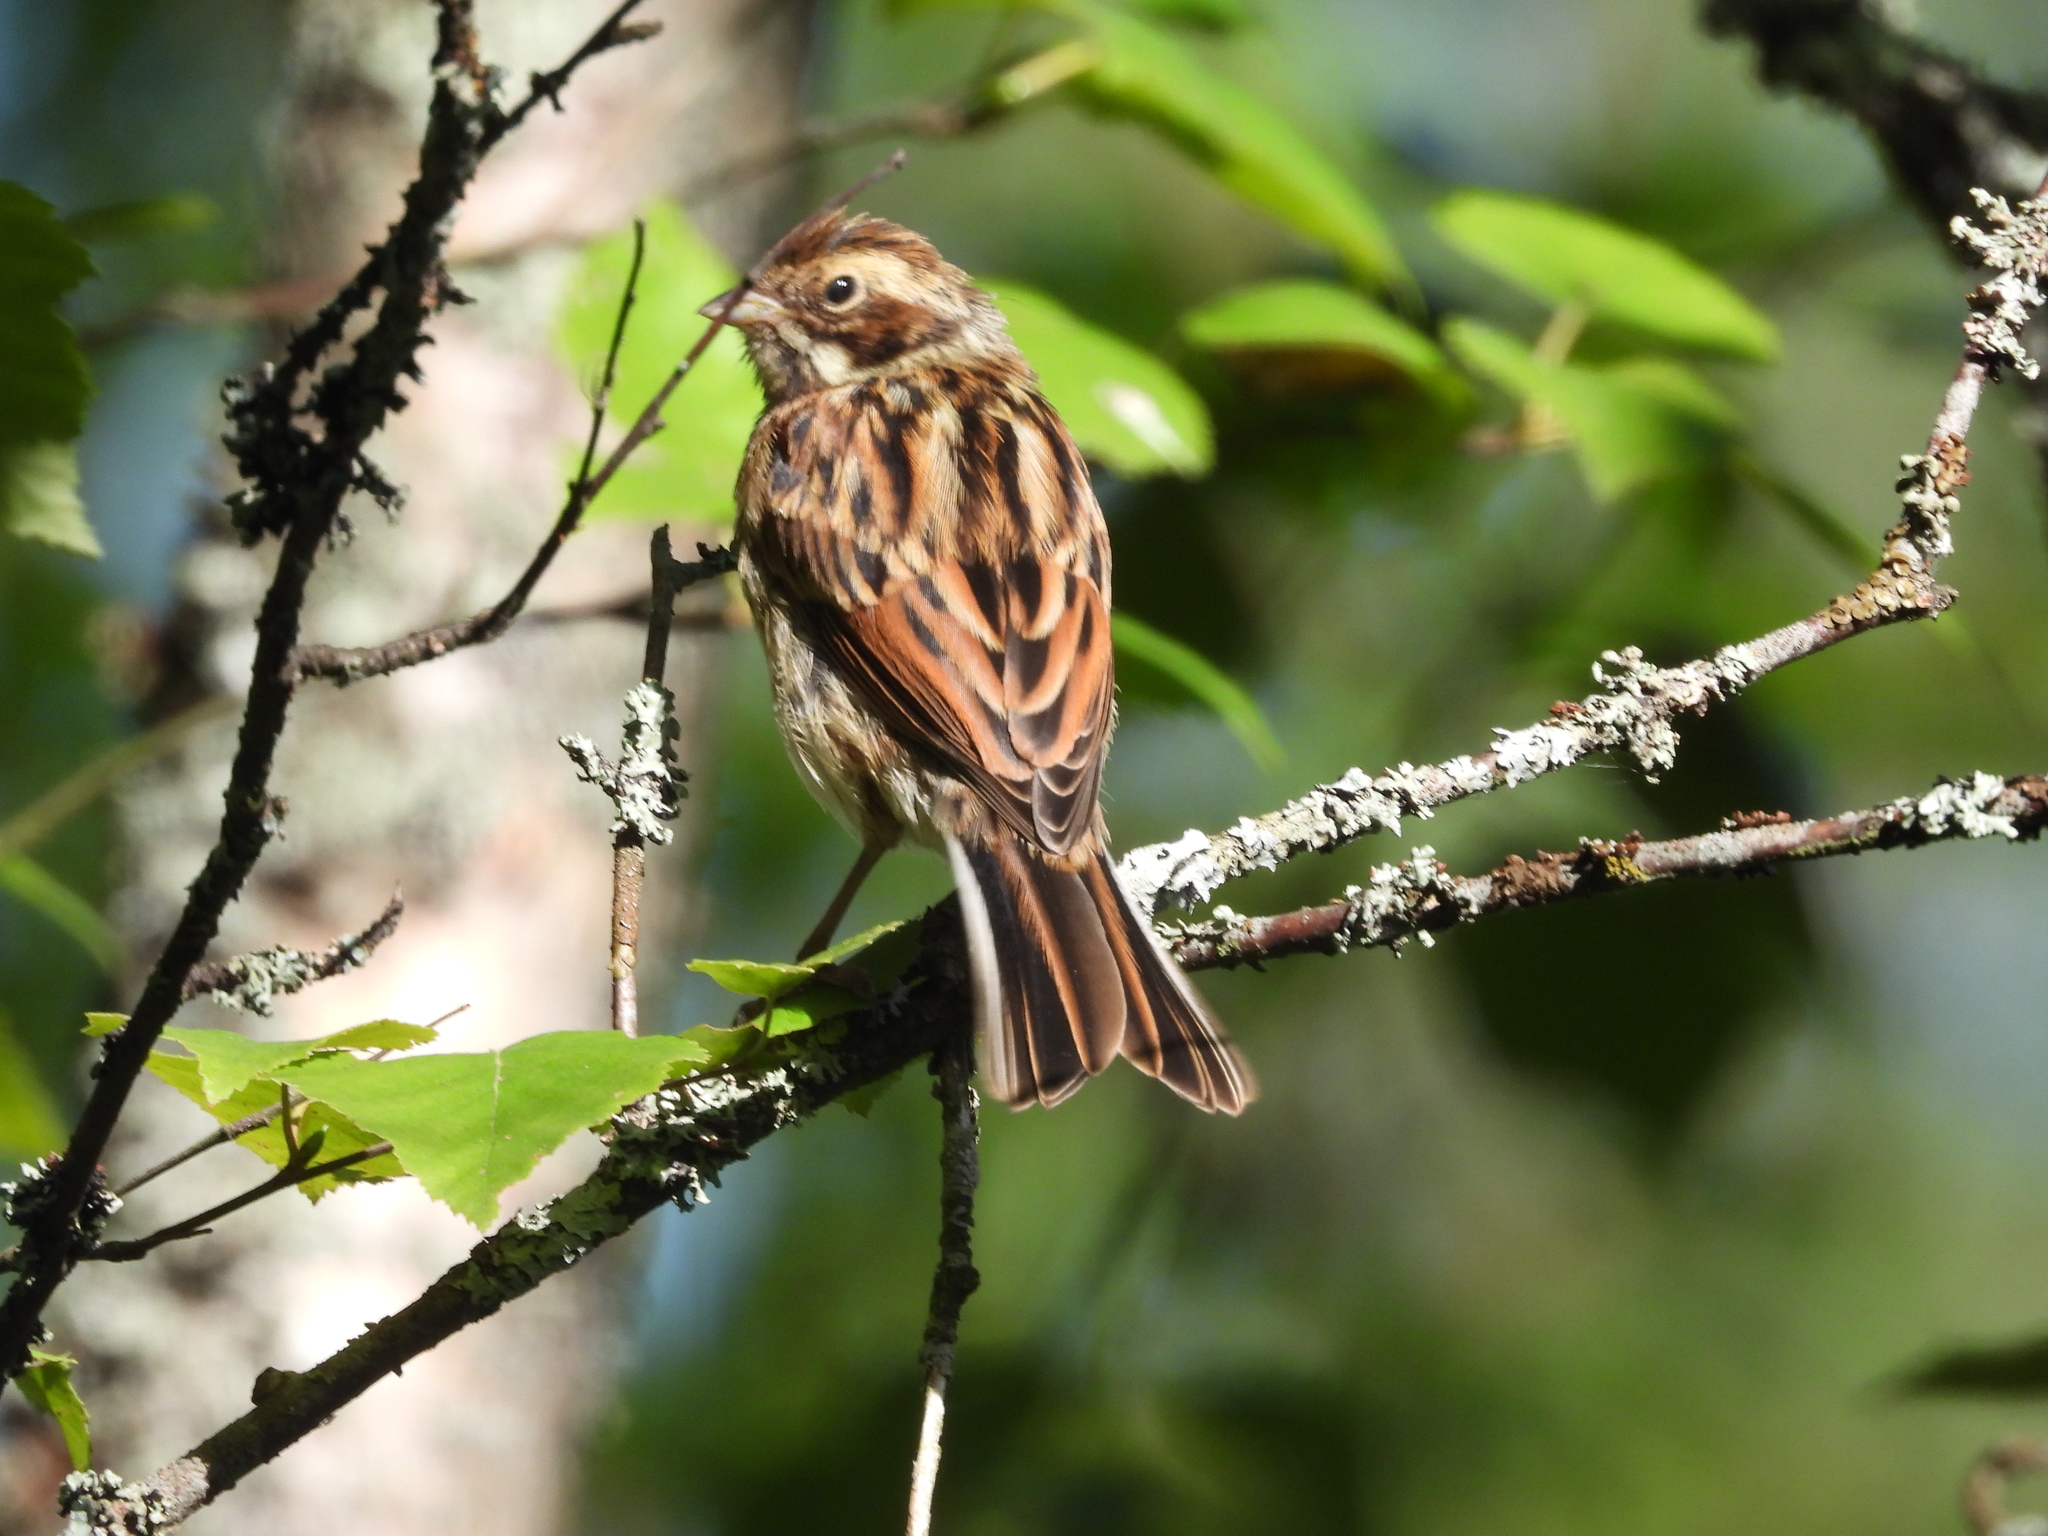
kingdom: Animalia
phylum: Chordata
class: Aves
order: Passeriformes
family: Emberizidae
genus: Emberiza
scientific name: Emberiza schoeniclus
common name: Reed bunting
